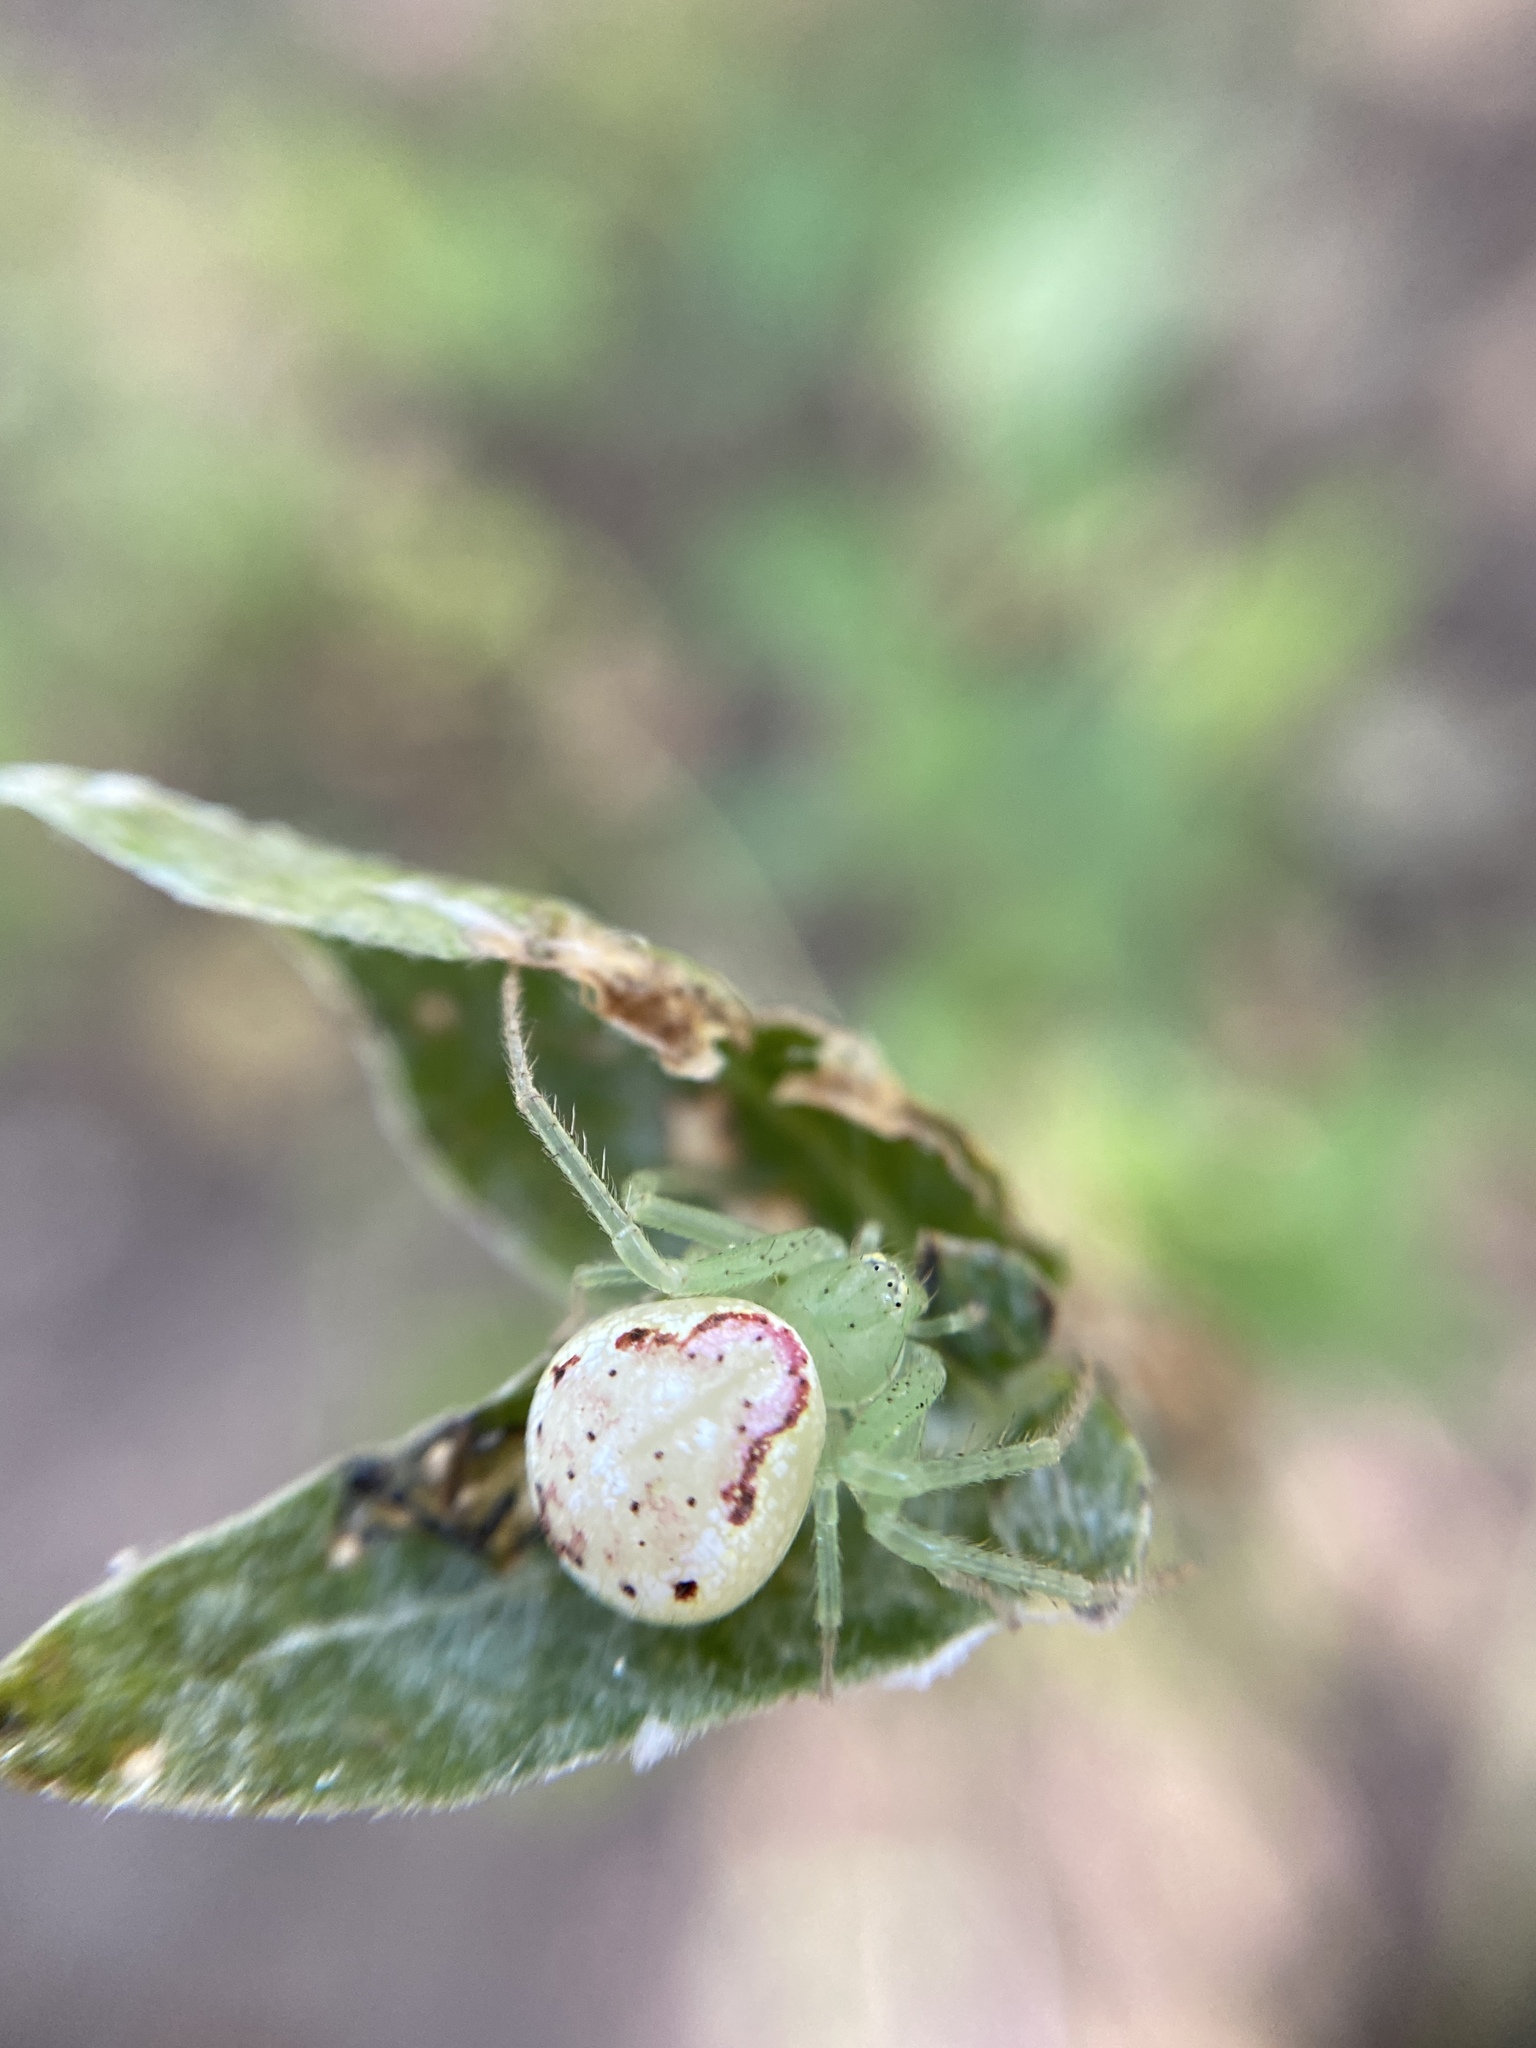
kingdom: Animalia
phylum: Arthropoda
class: Arachnida
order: Araneae
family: Thomisidae
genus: Diaea
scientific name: Diaea livens
